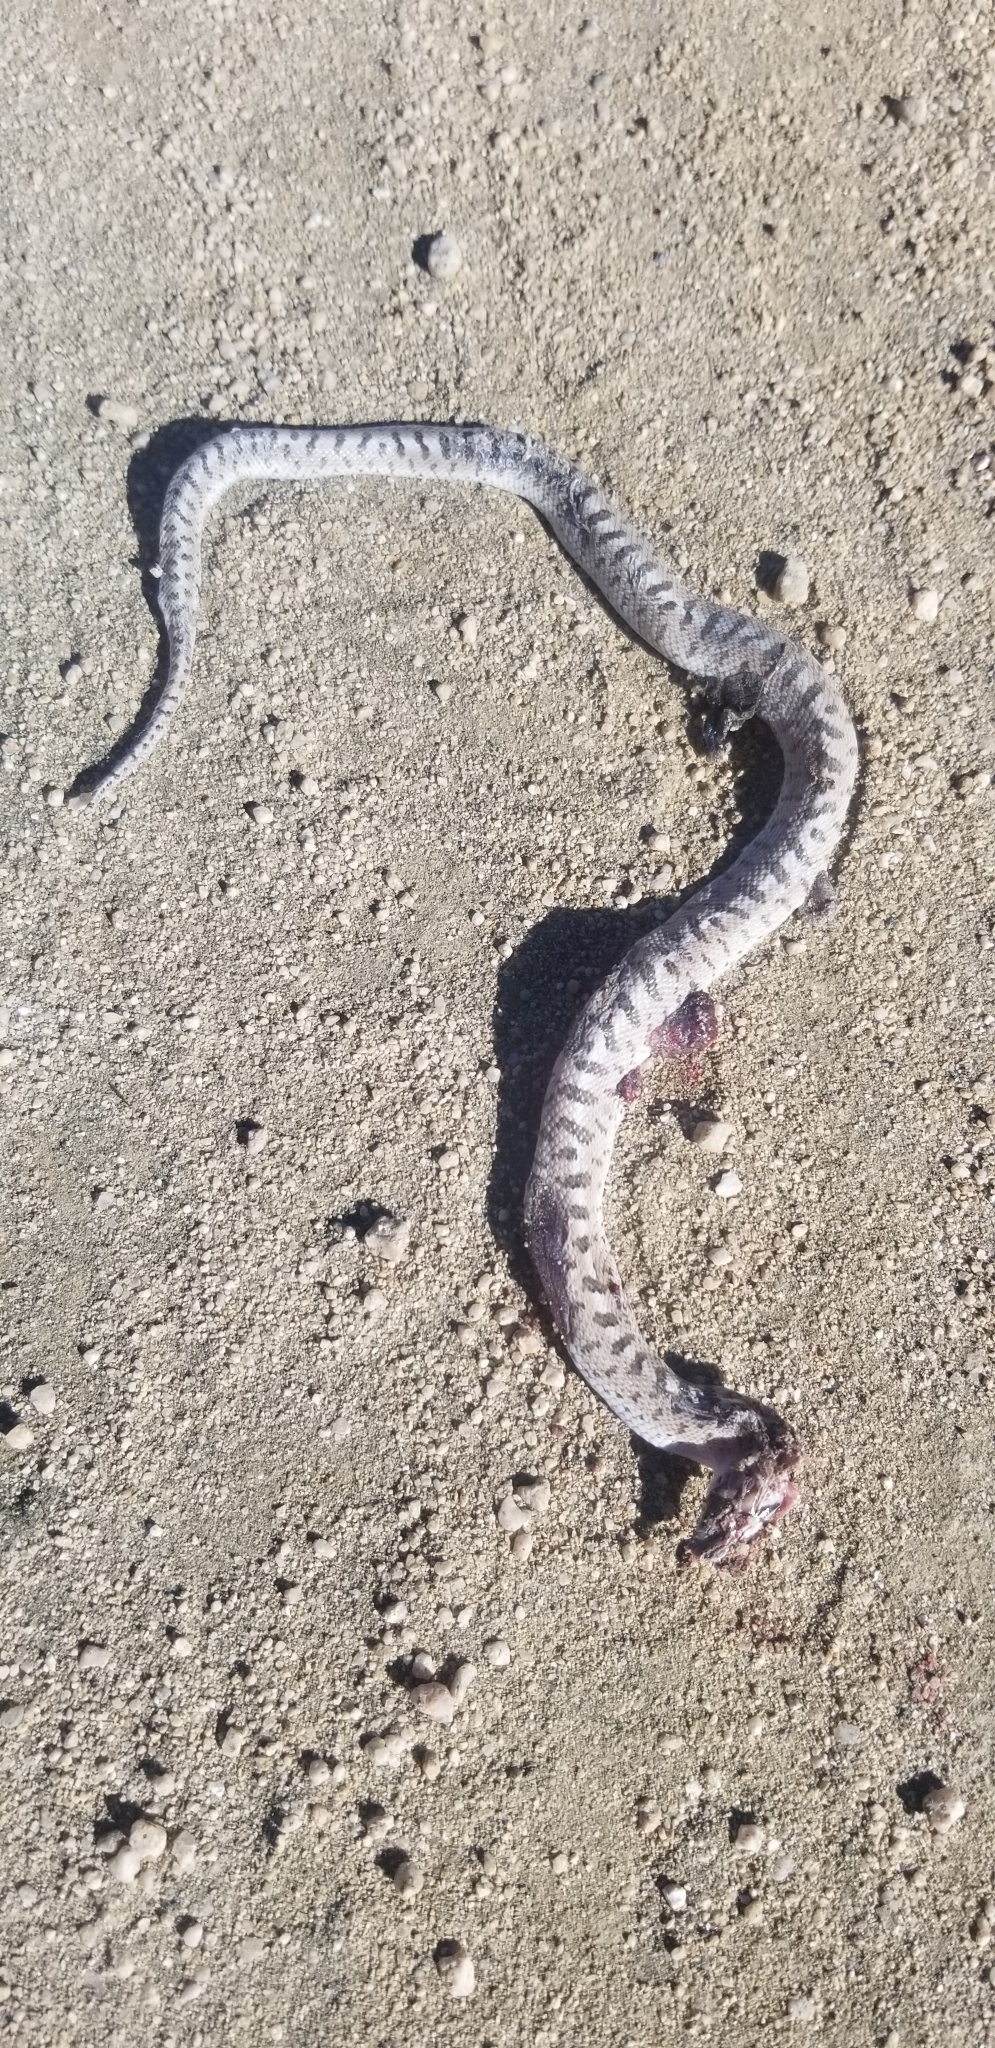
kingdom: Animalia
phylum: Chordata
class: Squamata
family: Colubridae
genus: Arizona
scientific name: Arizona elegans
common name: Glossy snake
